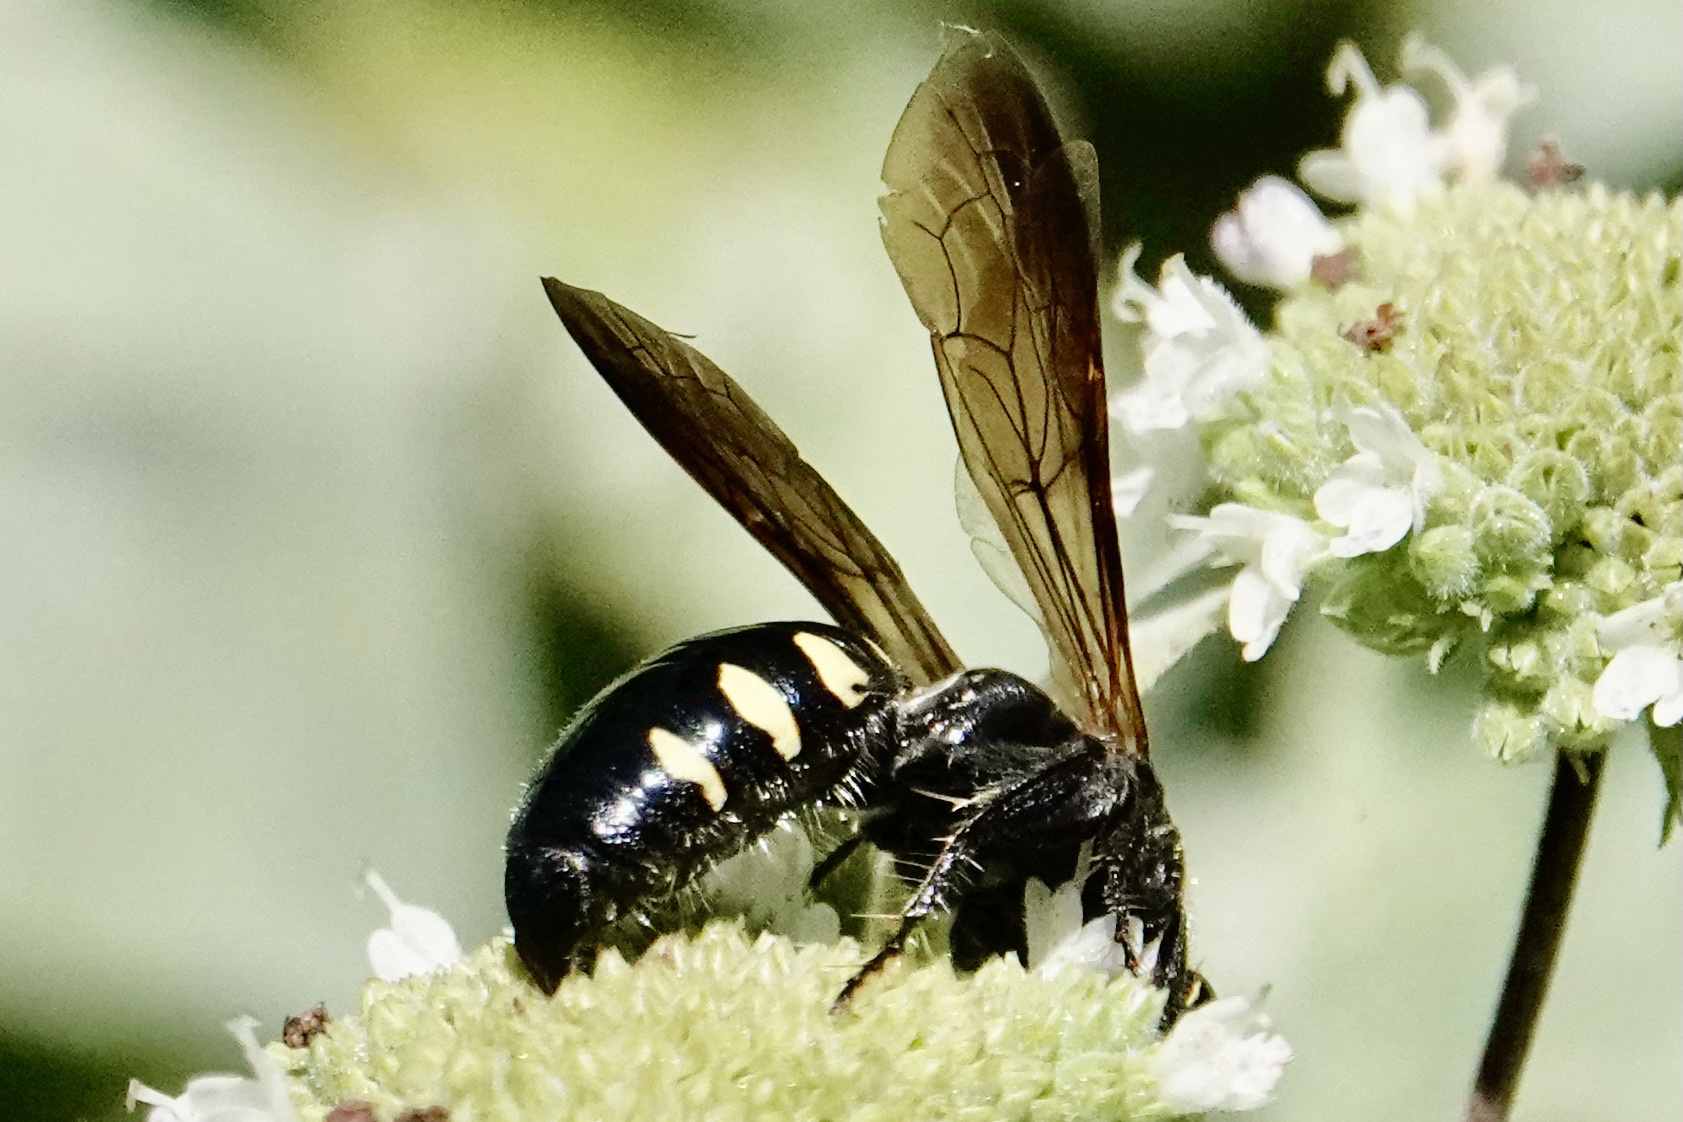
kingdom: Animalia
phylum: Arthropoda
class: Insecta
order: Hymenoptera
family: Tiphiidae
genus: Myzinum
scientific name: Myzinum obscurum
